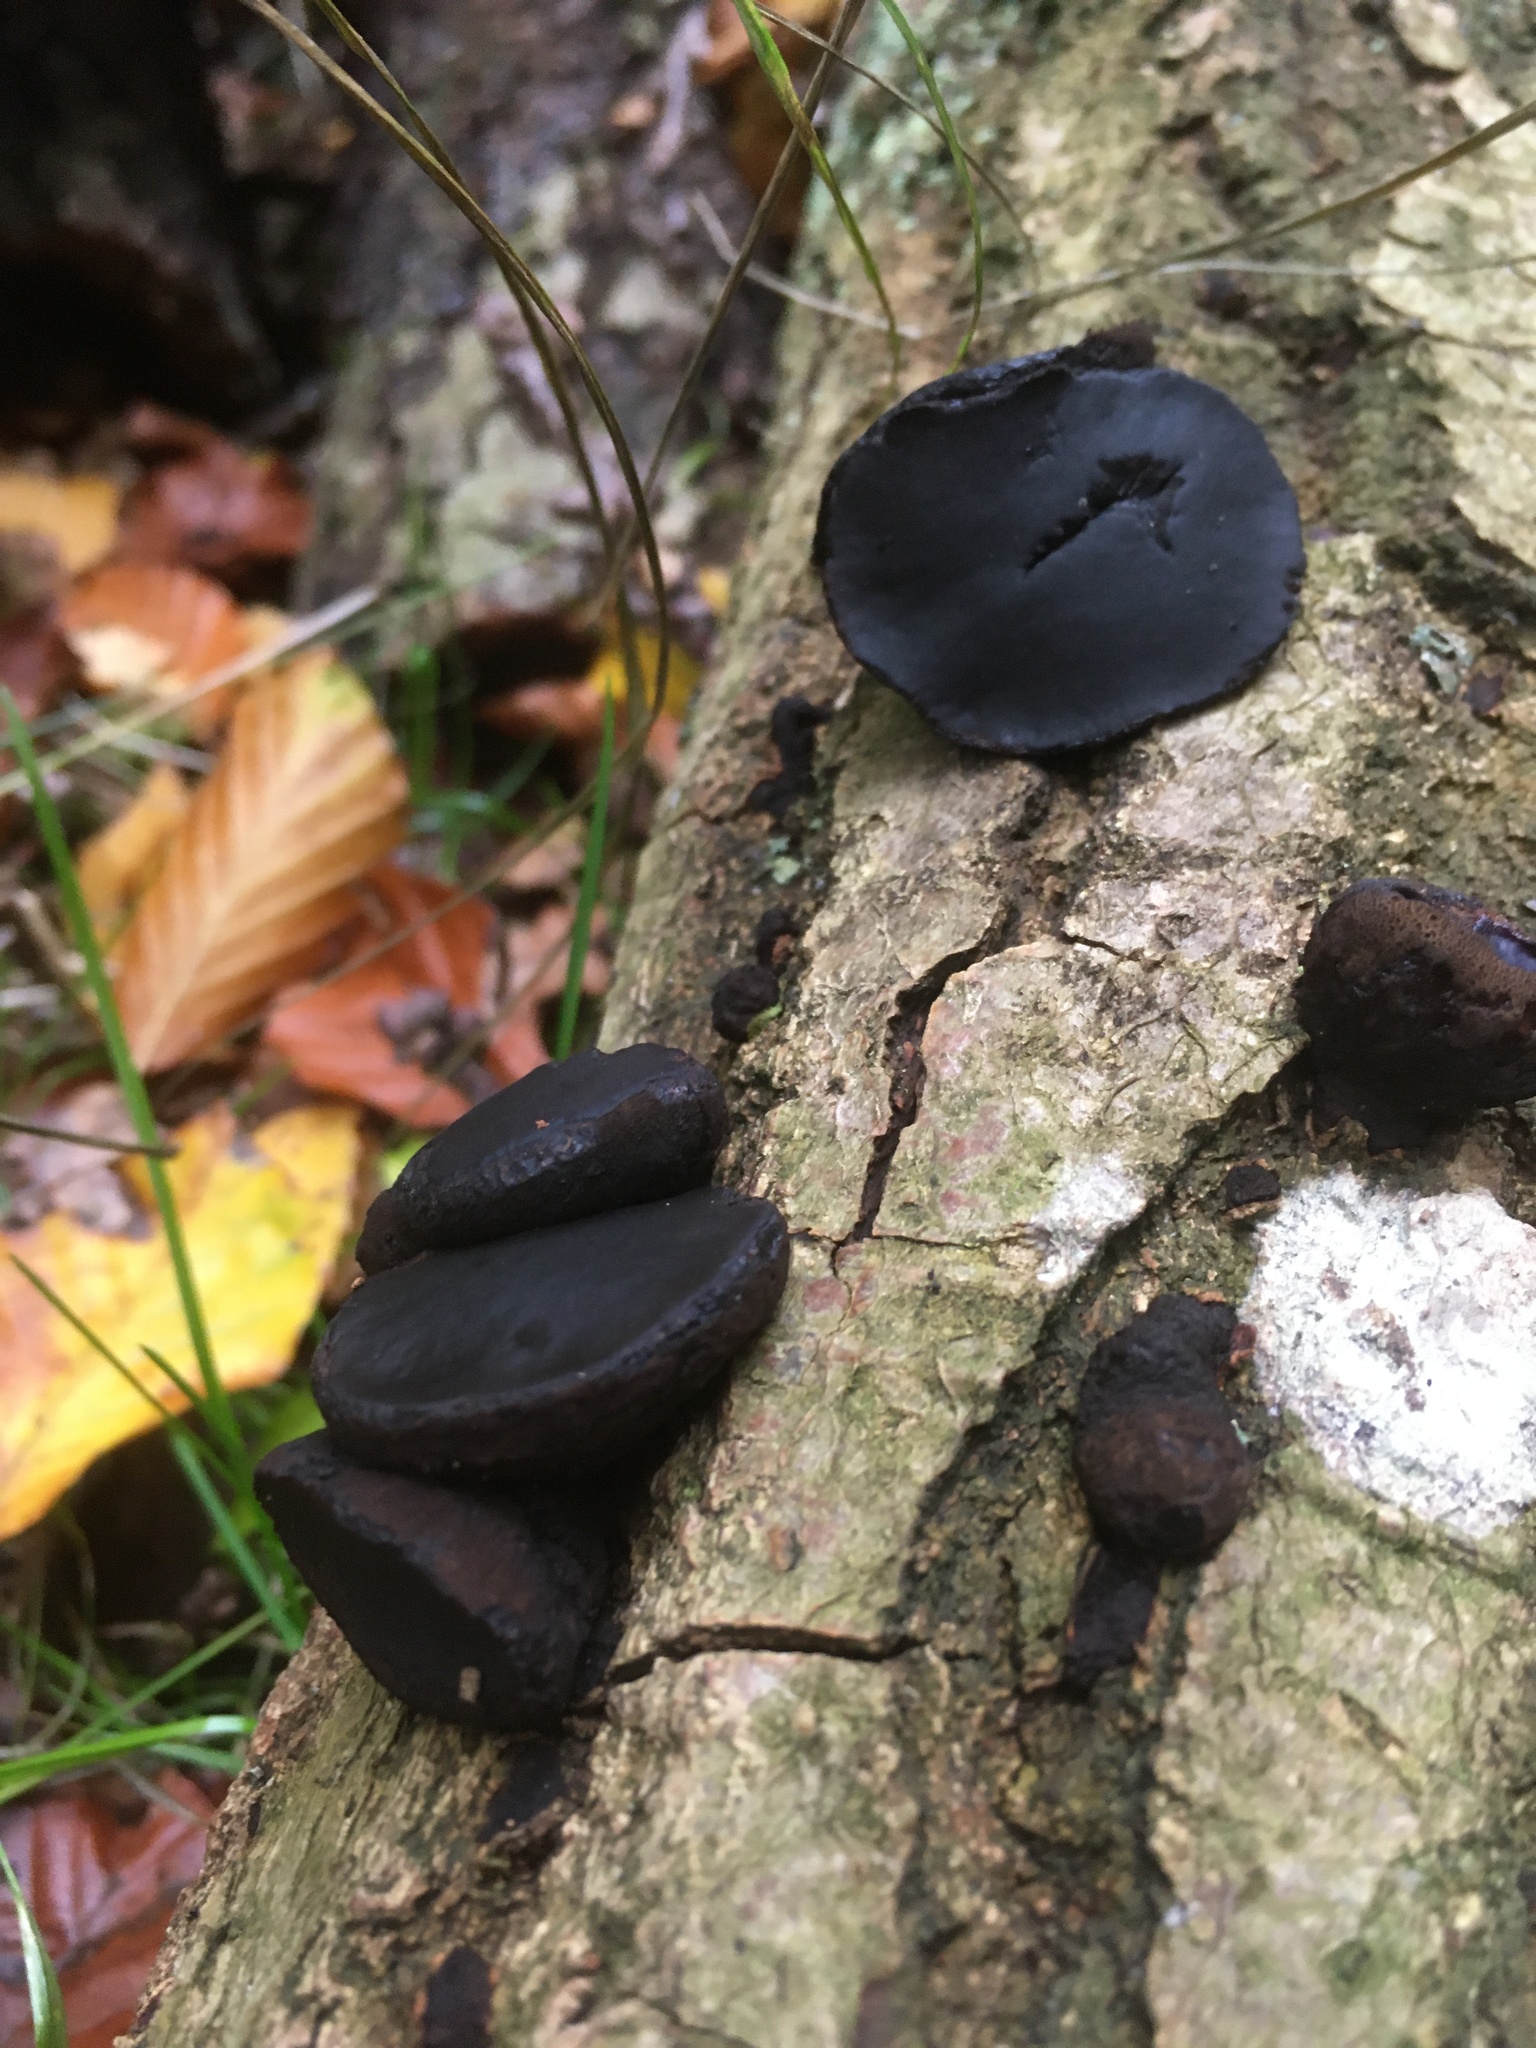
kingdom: Fungi
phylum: Ascomycota
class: Leotiomycetes
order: Phacidiales
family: Phacidiaceae
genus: Bulgaria
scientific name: Bulgaria inquinans
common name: Black bulgar
